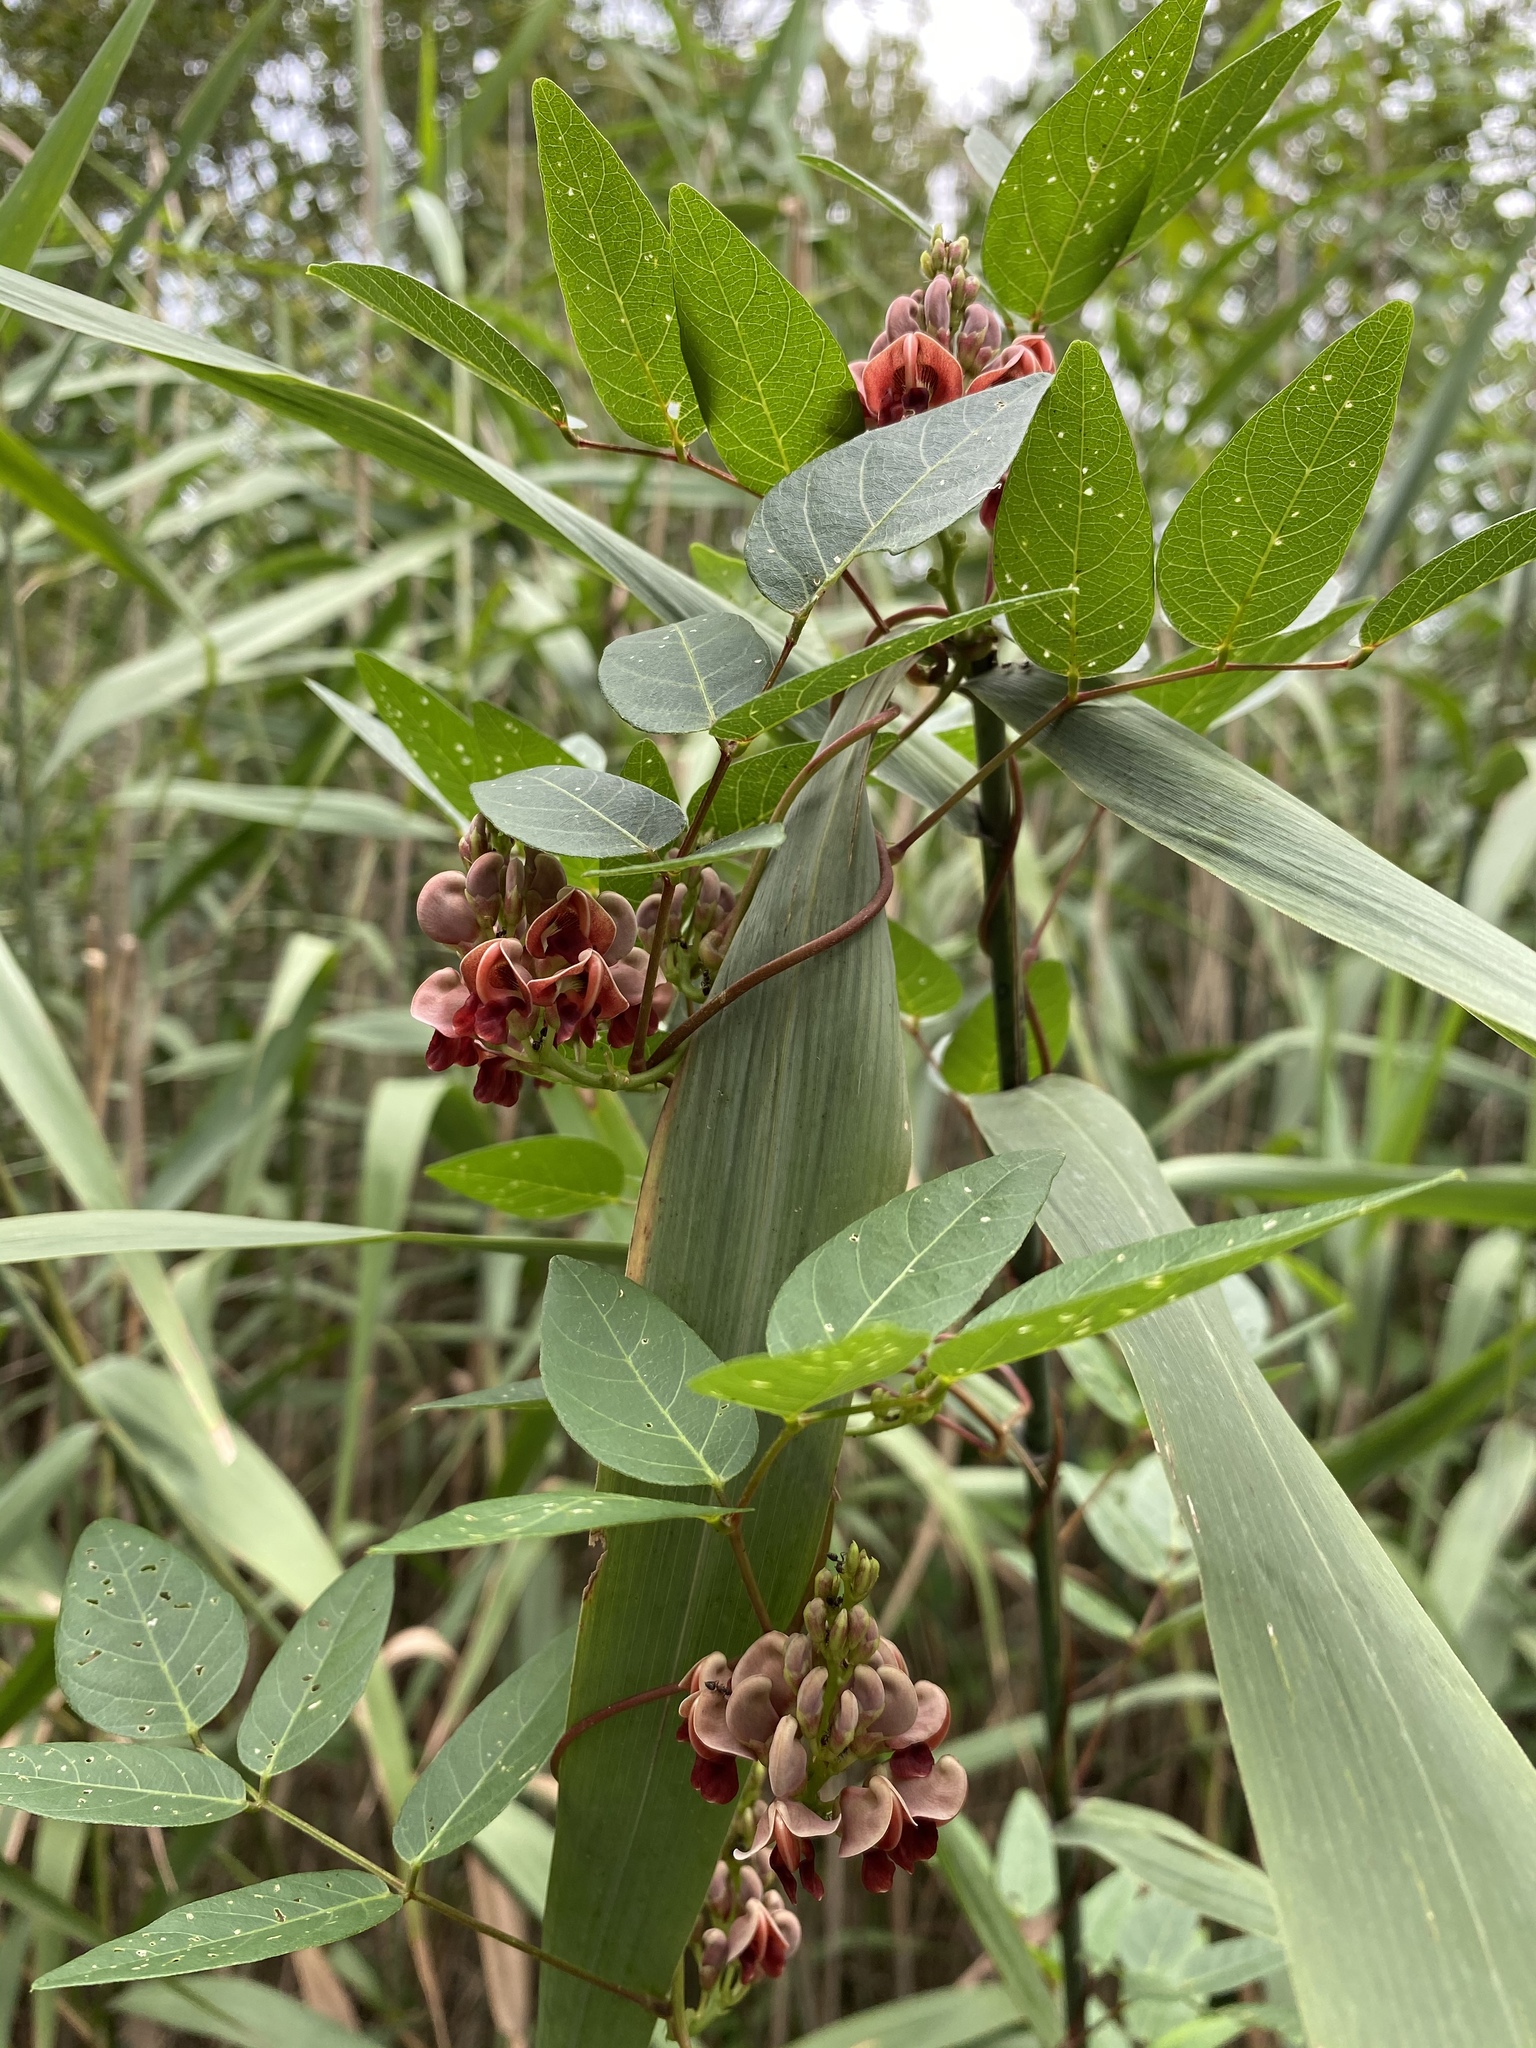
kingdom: Plantae
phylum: Tracheophyta
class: Magnoliopsida
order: Fabales
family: Fabaceae
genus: Apios
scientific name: Apios americana
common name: American potato-bean
